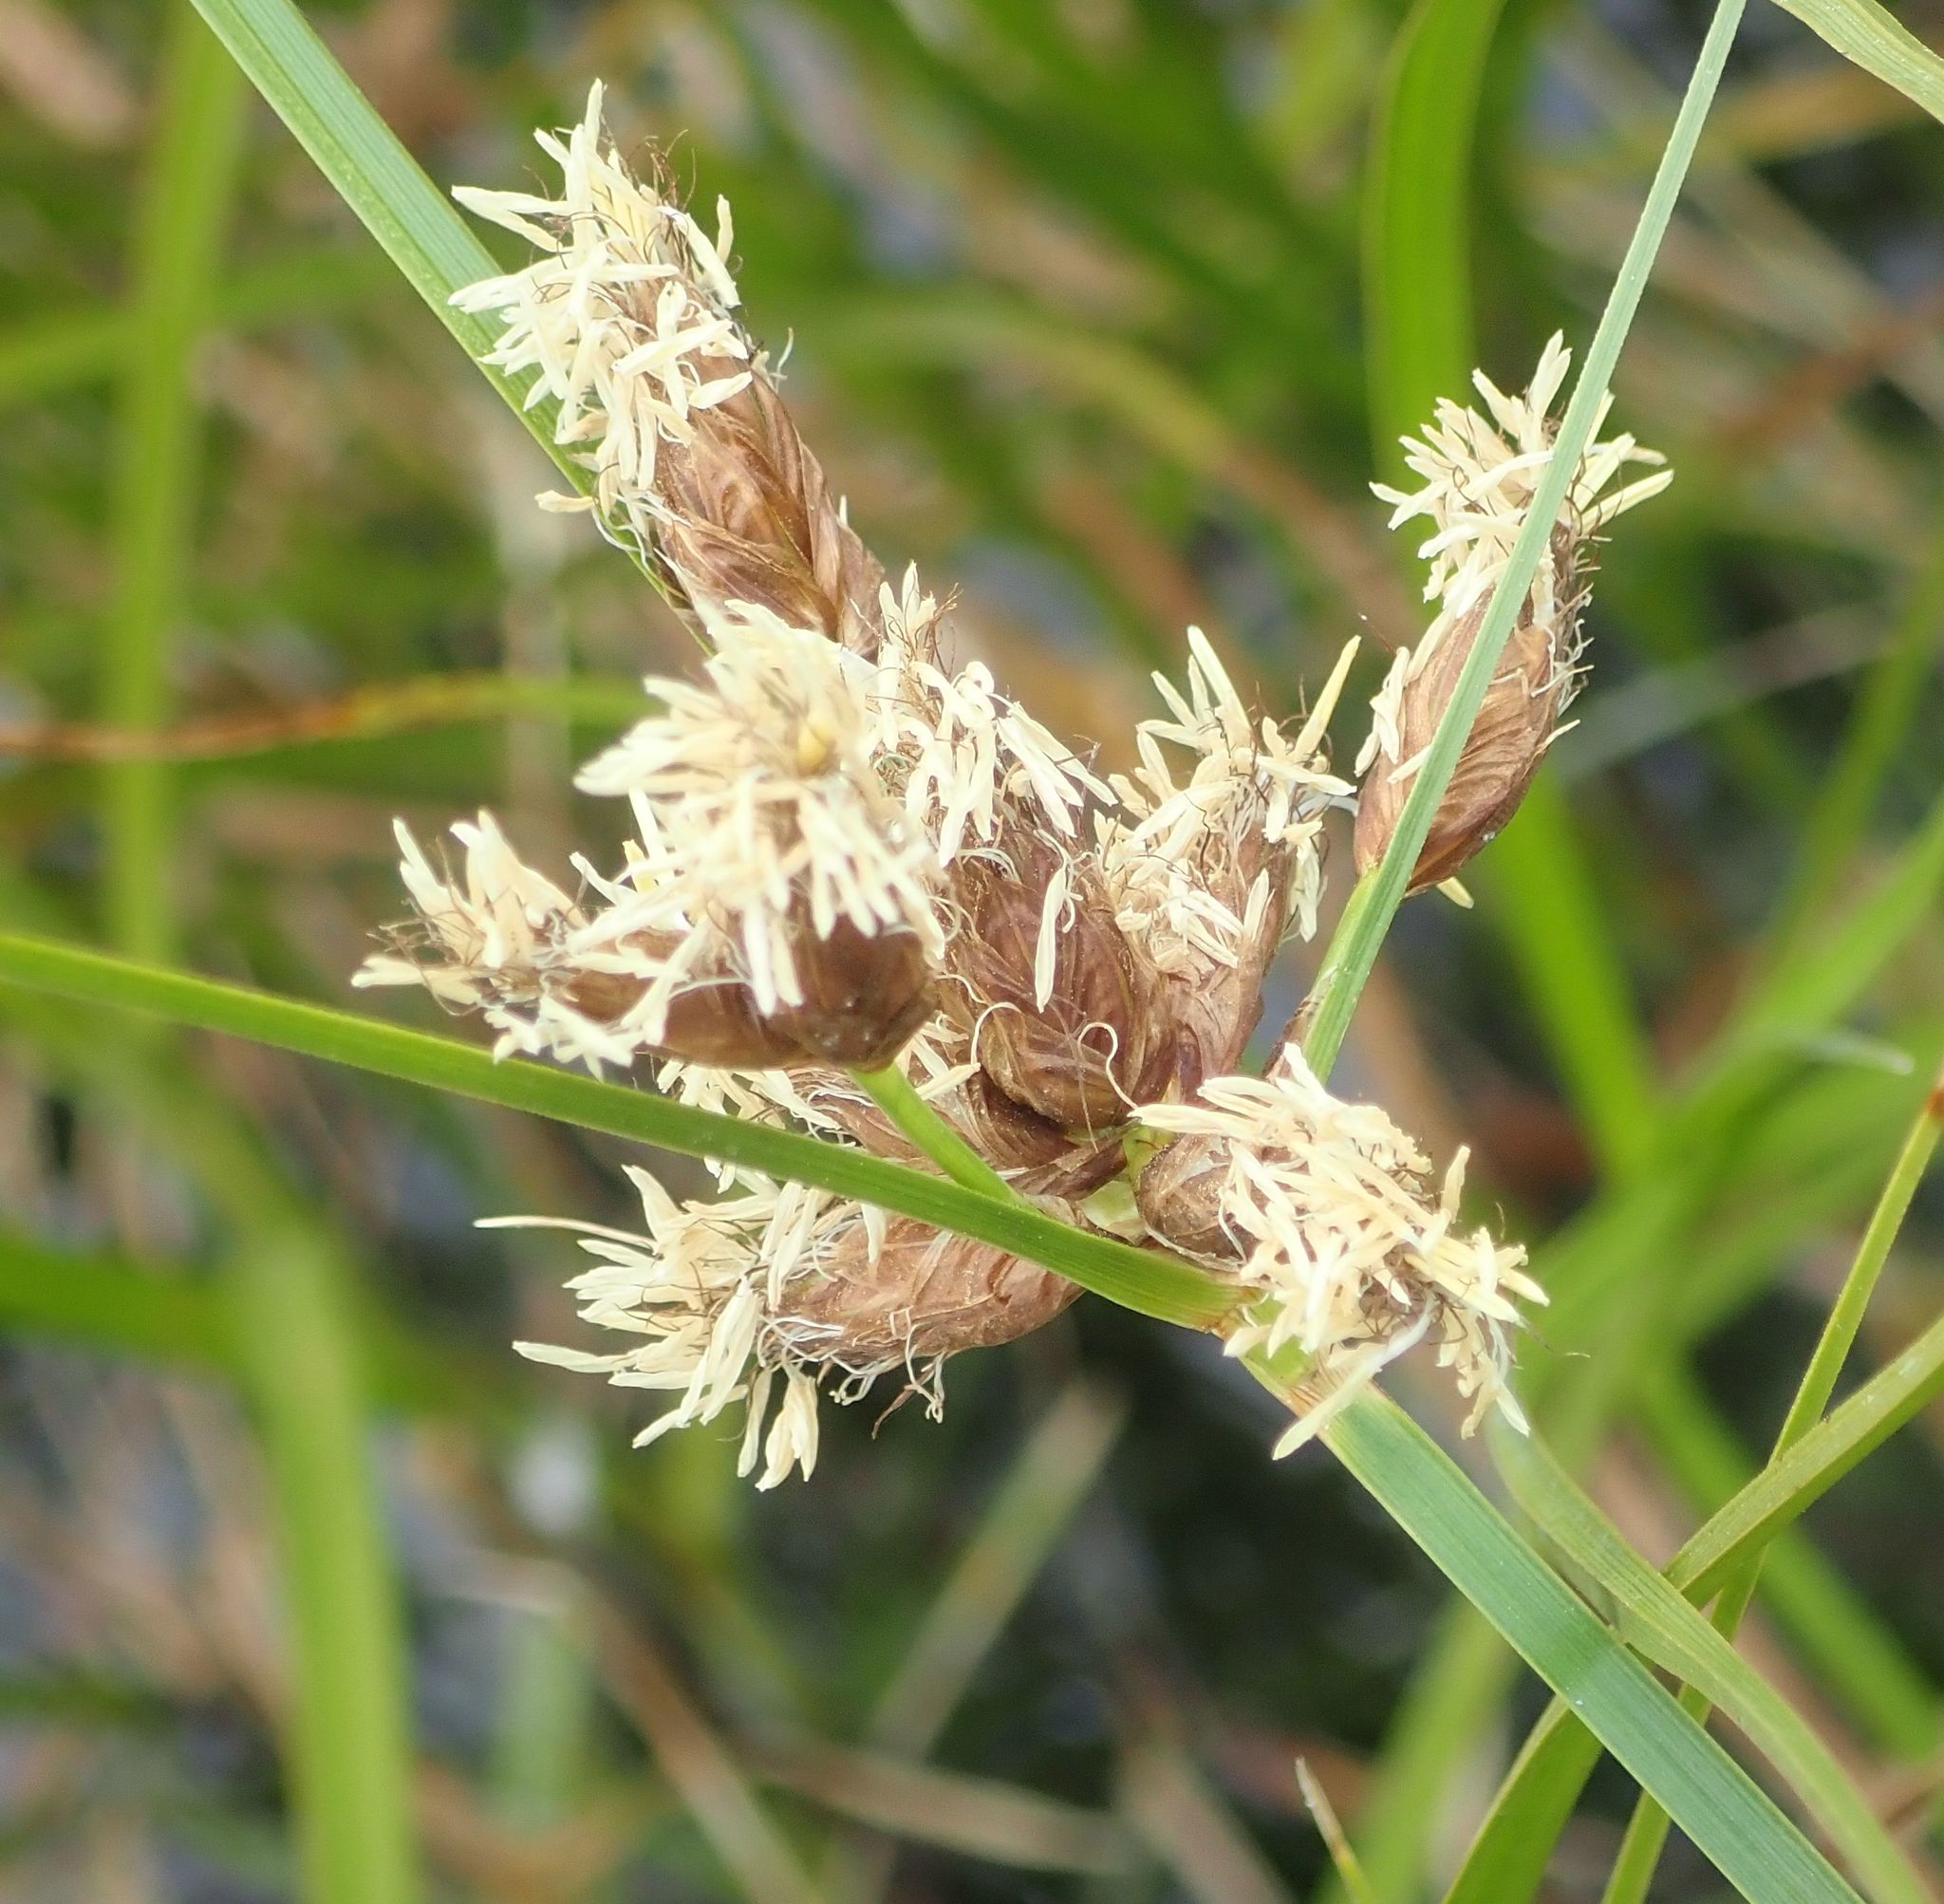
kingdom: Plantae
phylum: Tracheophyta
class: Liliopsida
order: Poales
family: Cyperaceae
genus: Bolboschoenus
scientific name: Bolboschoenus caldwellii
